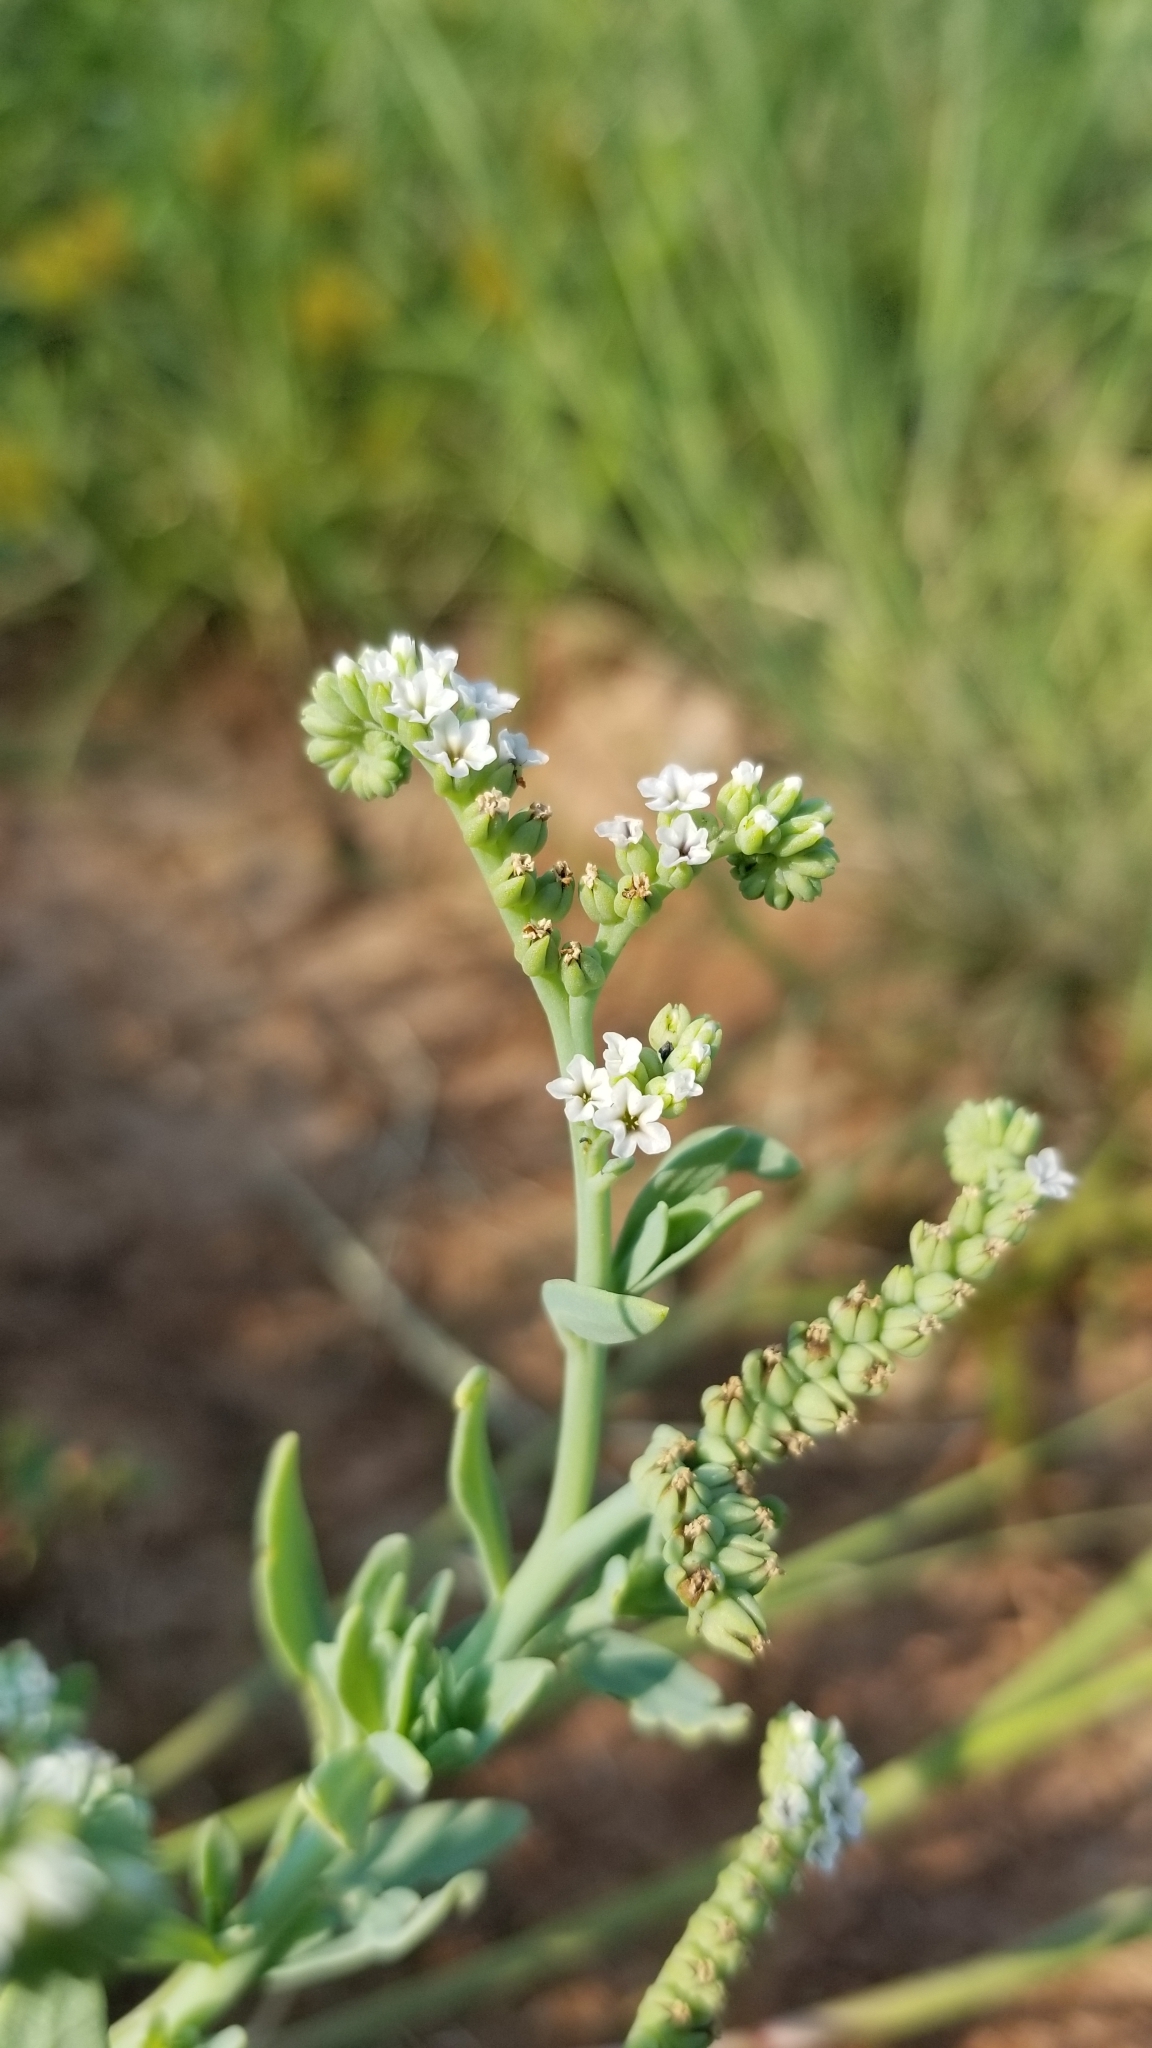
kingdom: Plantae
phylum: Tracheophyta
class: Magnoliopsida
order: Boraginales
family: Heliotropiaceae
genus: Heliotropium
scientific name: Heliotropium curassavicum
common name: Seaside heliotrope
